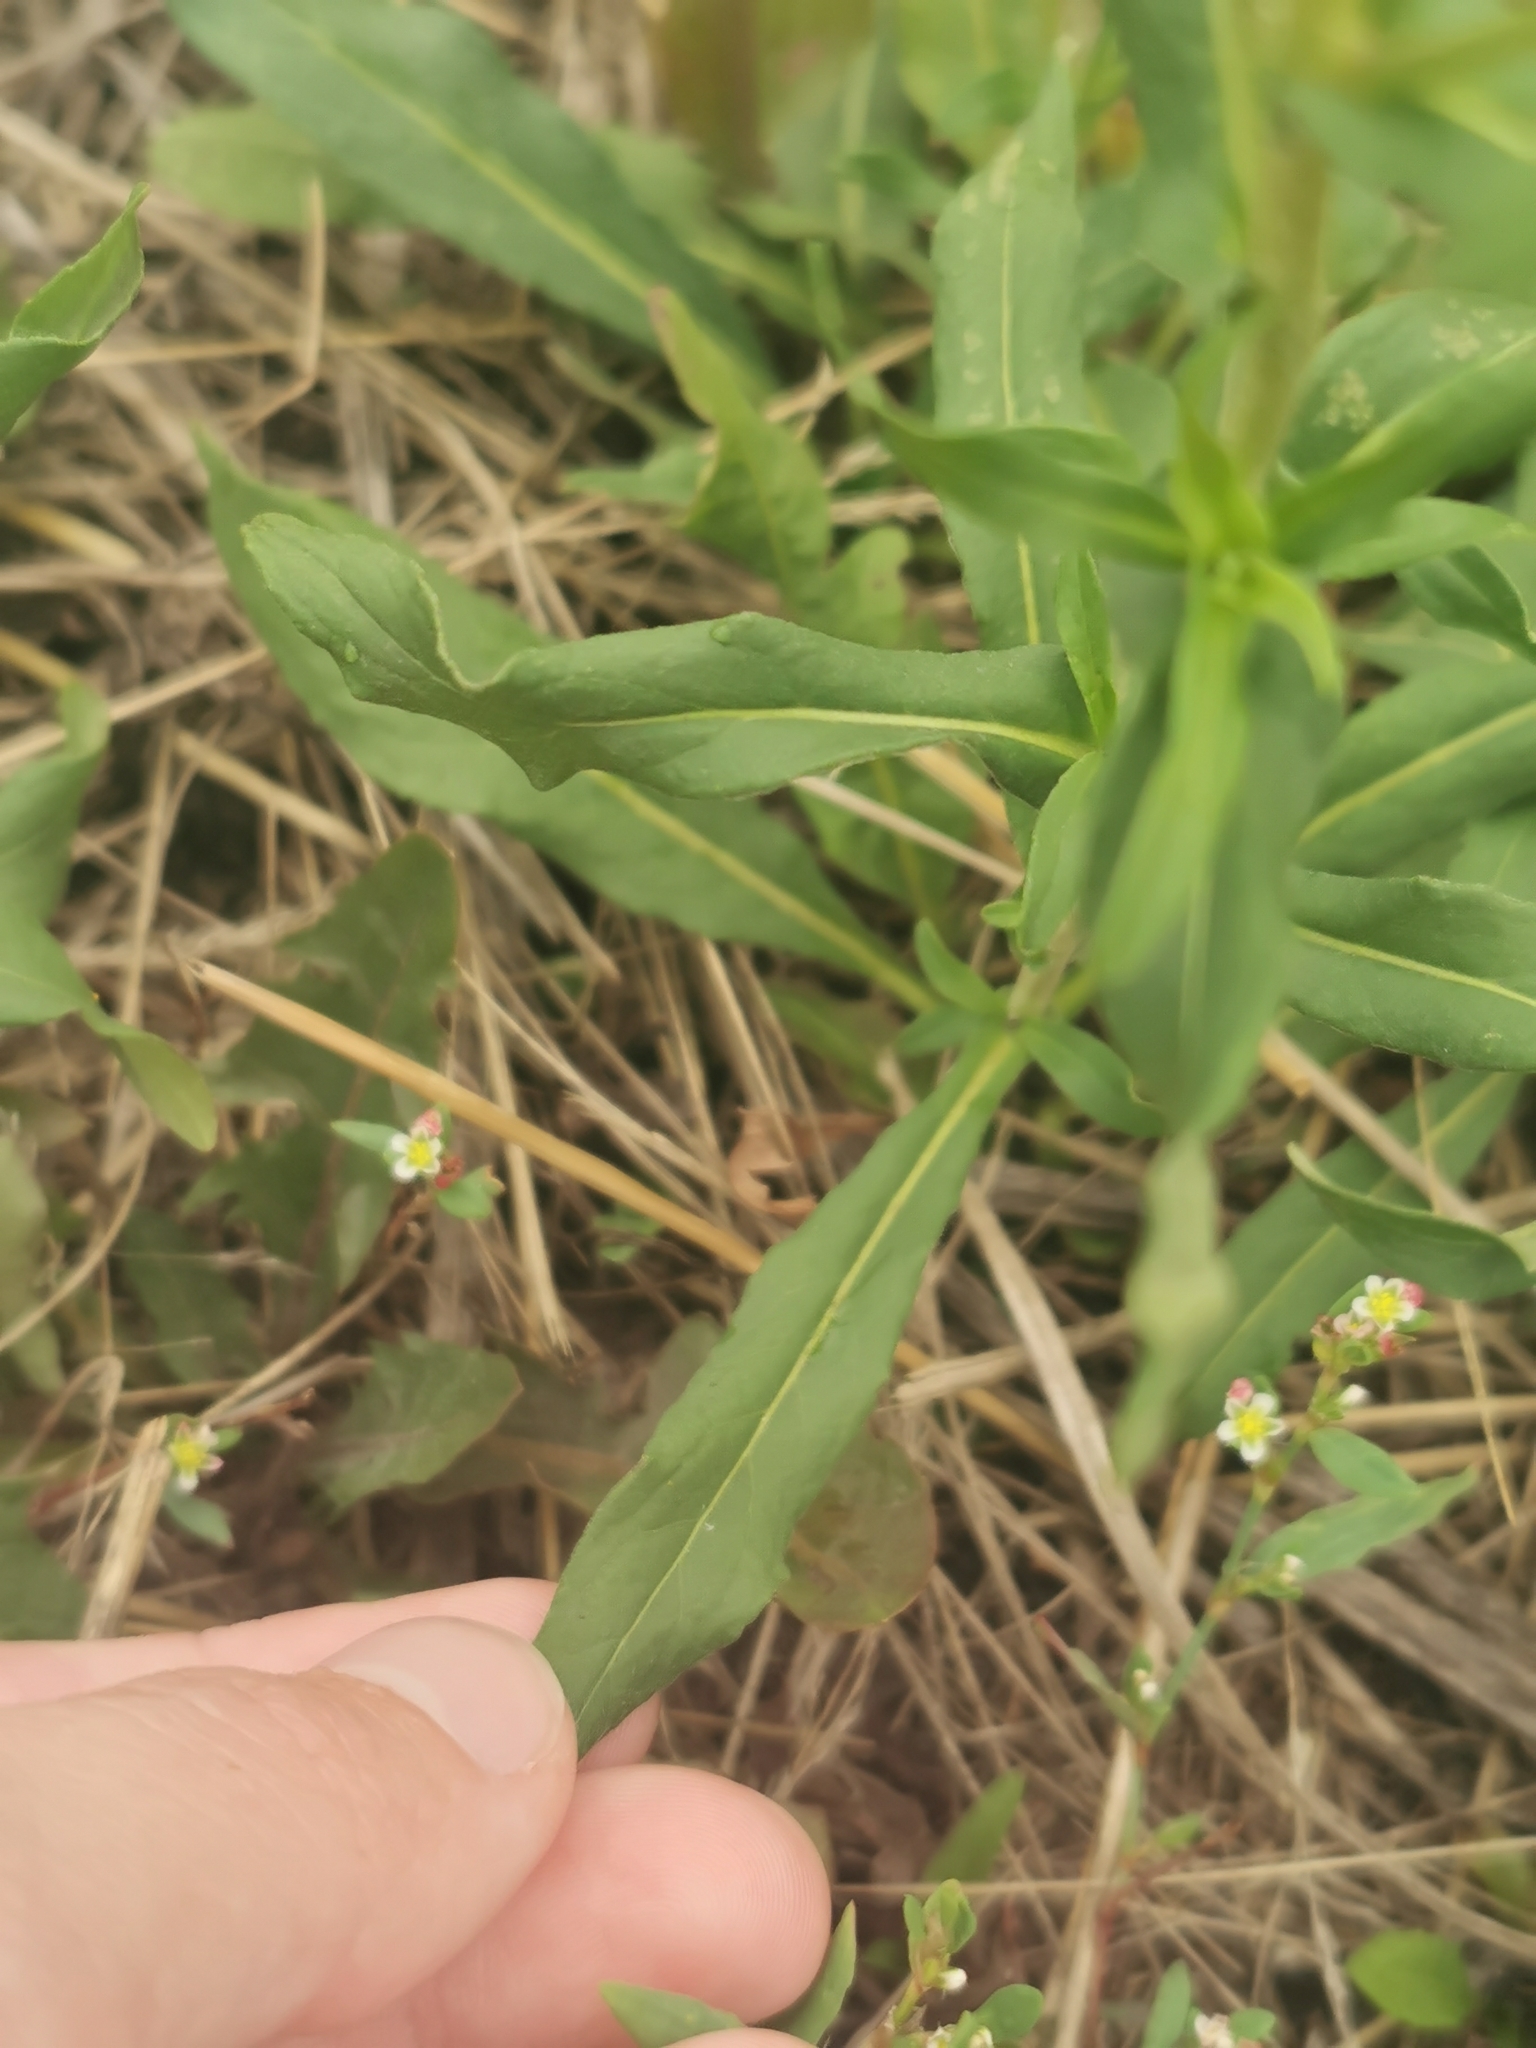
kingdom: Plantae
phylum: Tracheophyta
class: Magnoliopsida
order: Asterales
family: Asteraceae
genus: Pentanema
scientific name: Pentanema britannicum
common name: British elecampane
